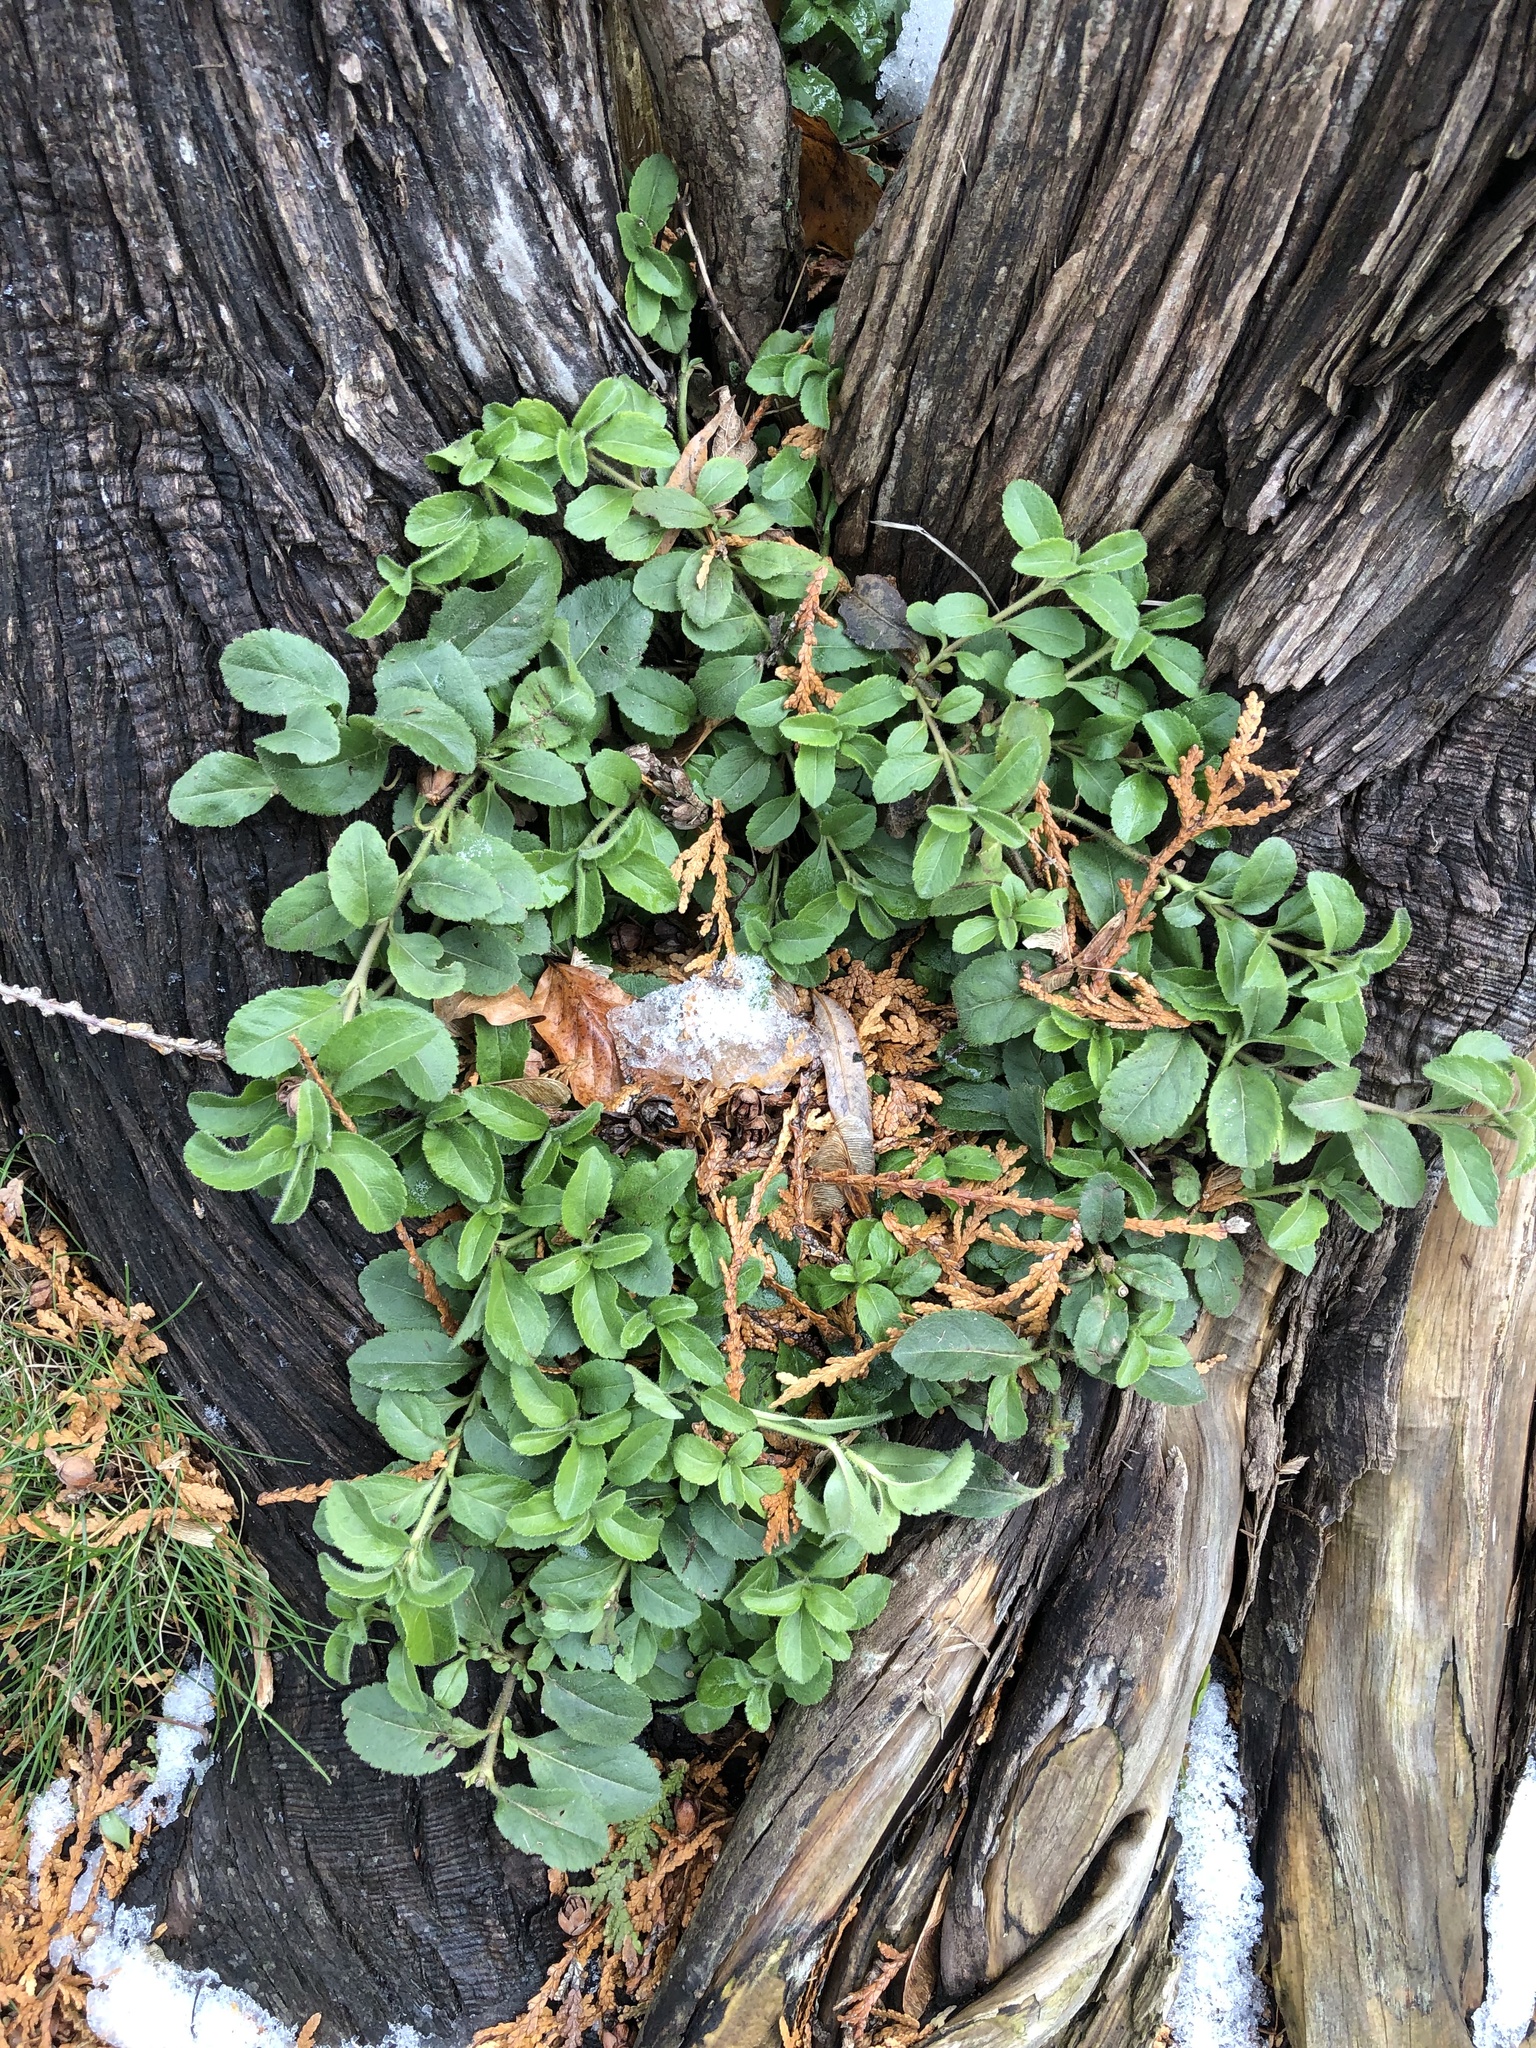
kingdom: Plantae
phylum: Tracheophyta
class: Magnoliopsida
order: Lamiales
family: Plantaginaceae
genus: Veronica
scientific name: Veronica officinalis
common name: Common speedwell
